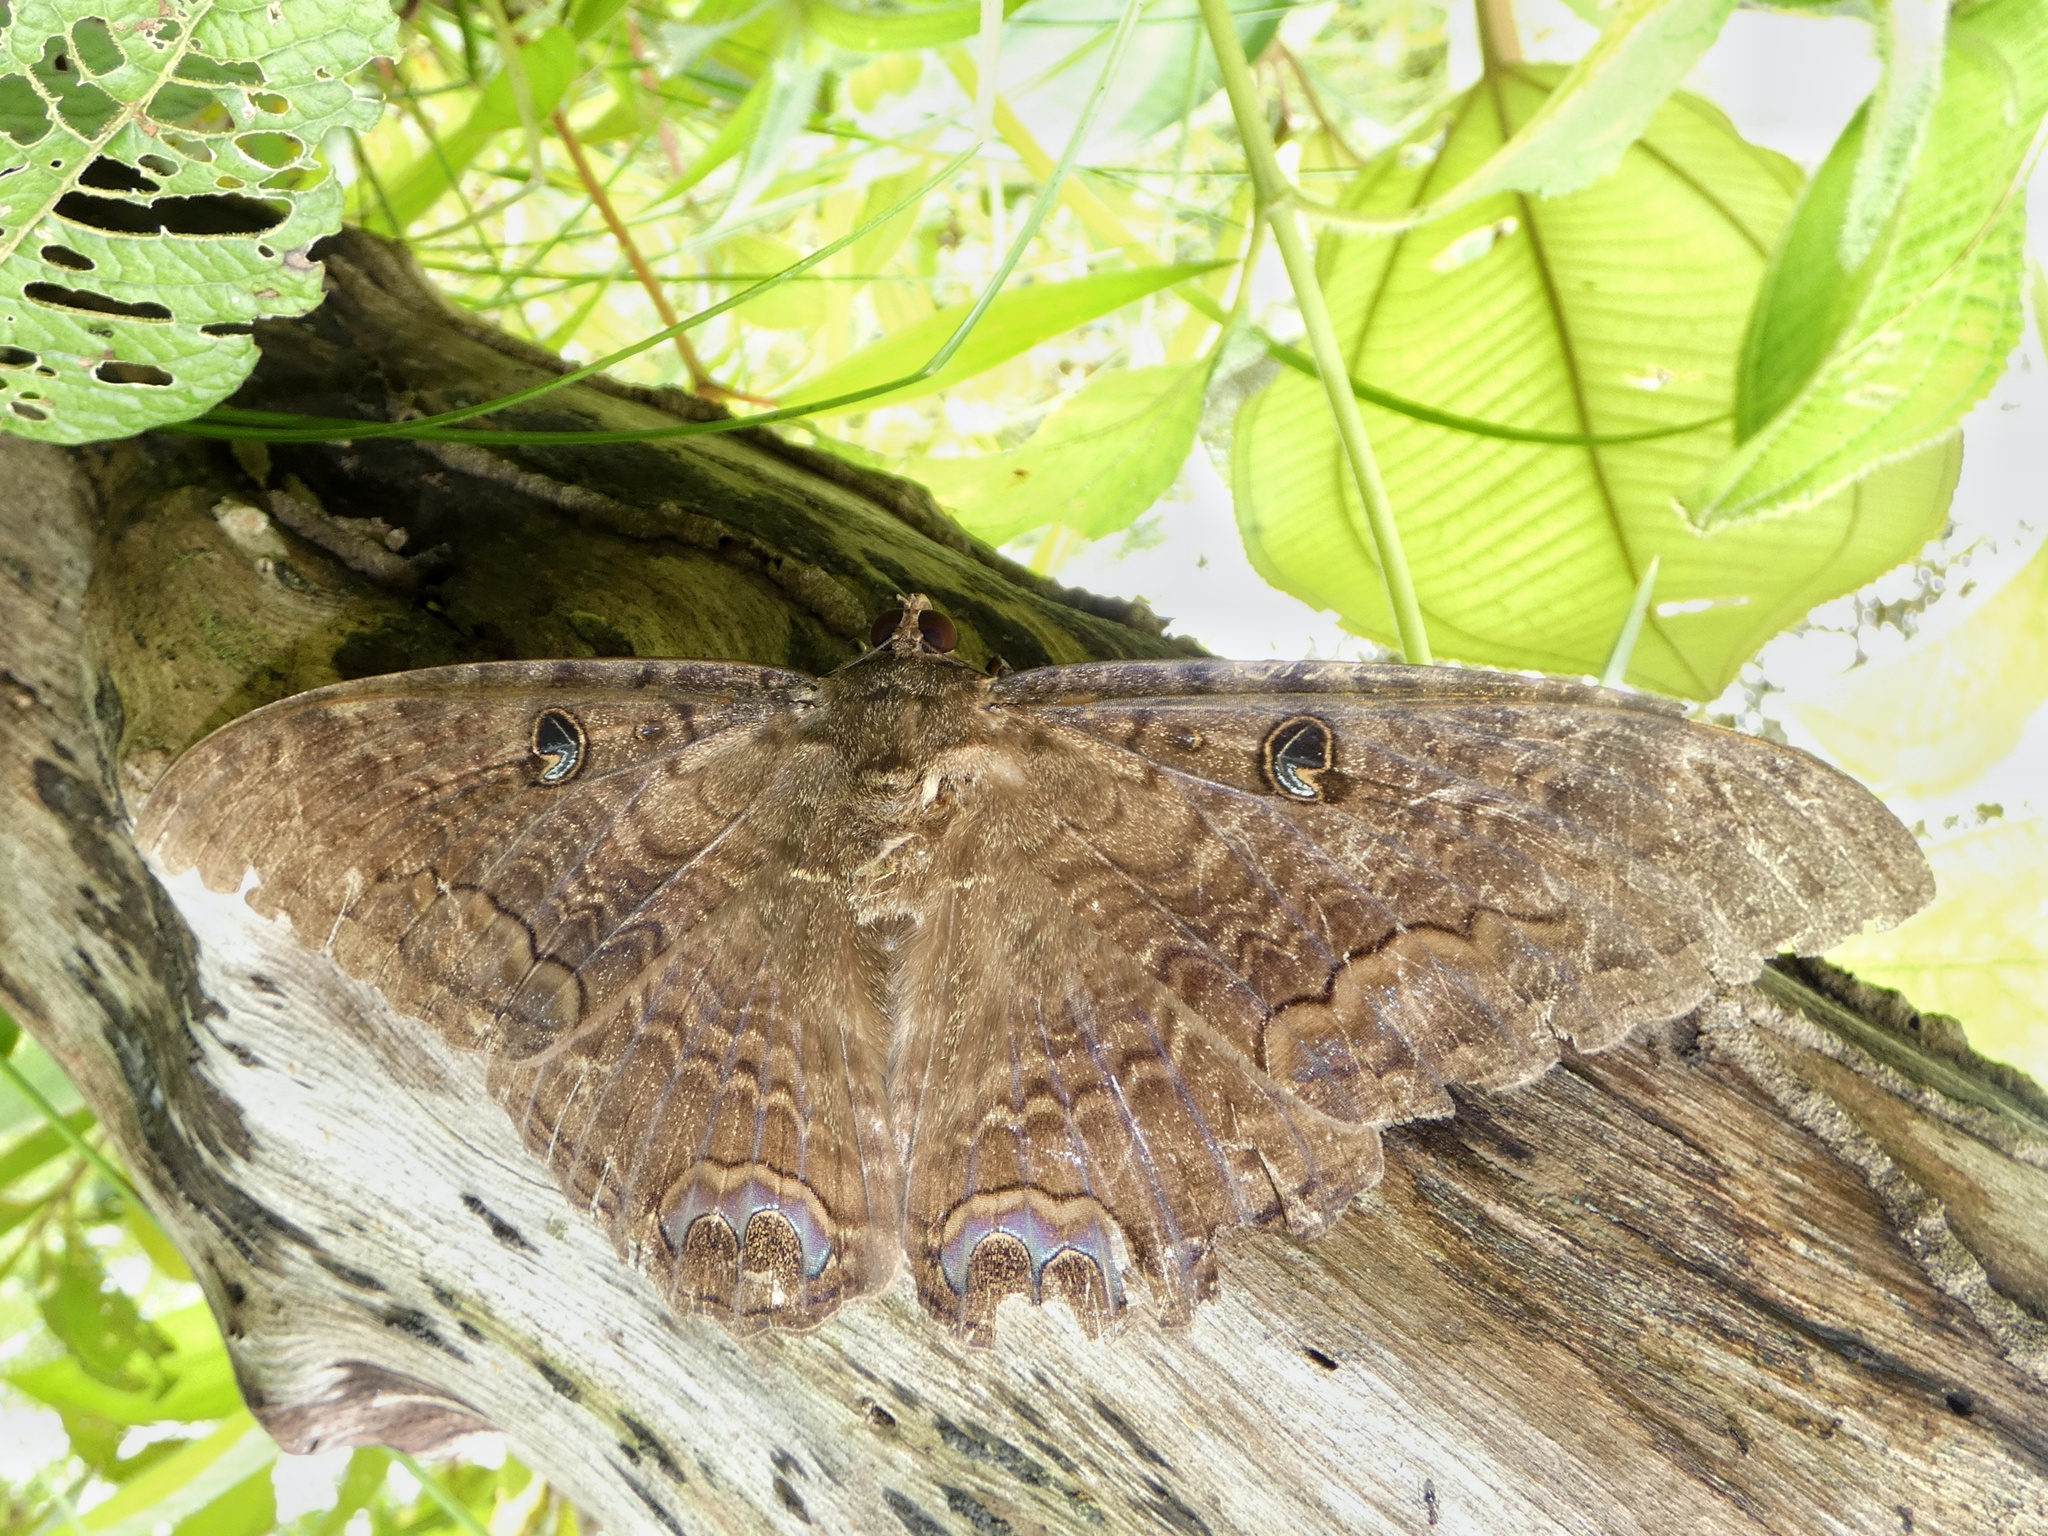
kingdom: Animalia
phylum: Arthropoda
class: Insecta
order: Lepidoptera
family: Erebidae
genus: Ascalapha
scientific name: Ascalapha odorata
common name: Black witch
